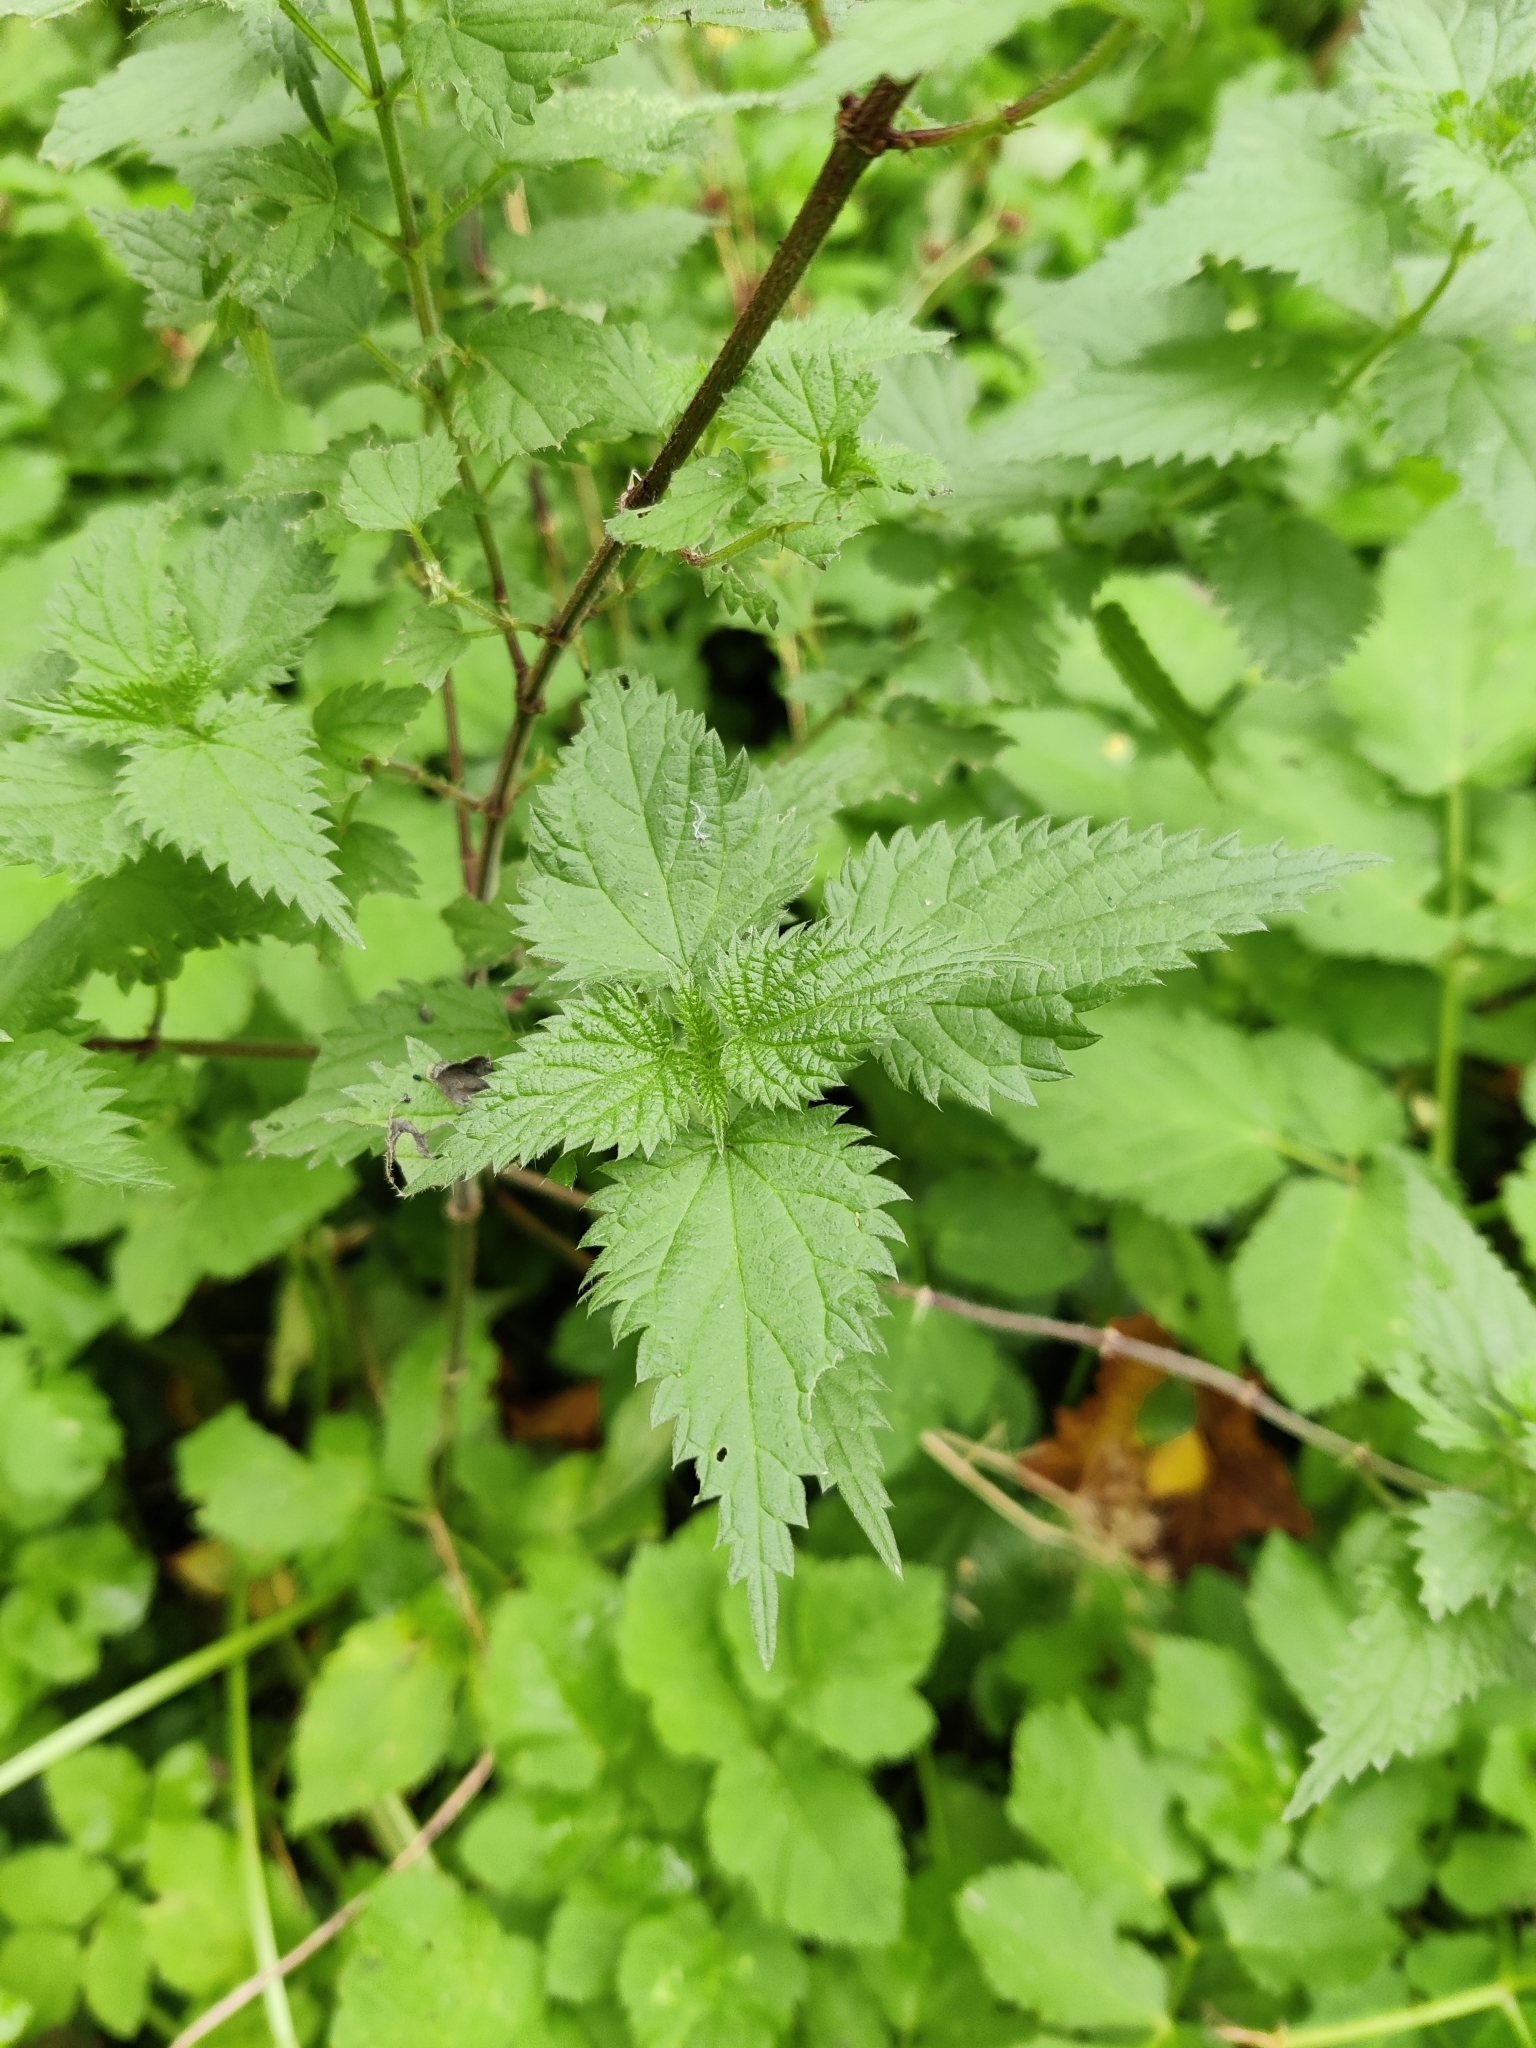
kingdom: Plantae
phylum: Tracheophyta
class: Magnoliopsida
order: Rosales
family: Urticaceae
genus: Urtica
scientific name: Urtica dioica
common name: Common nettle
